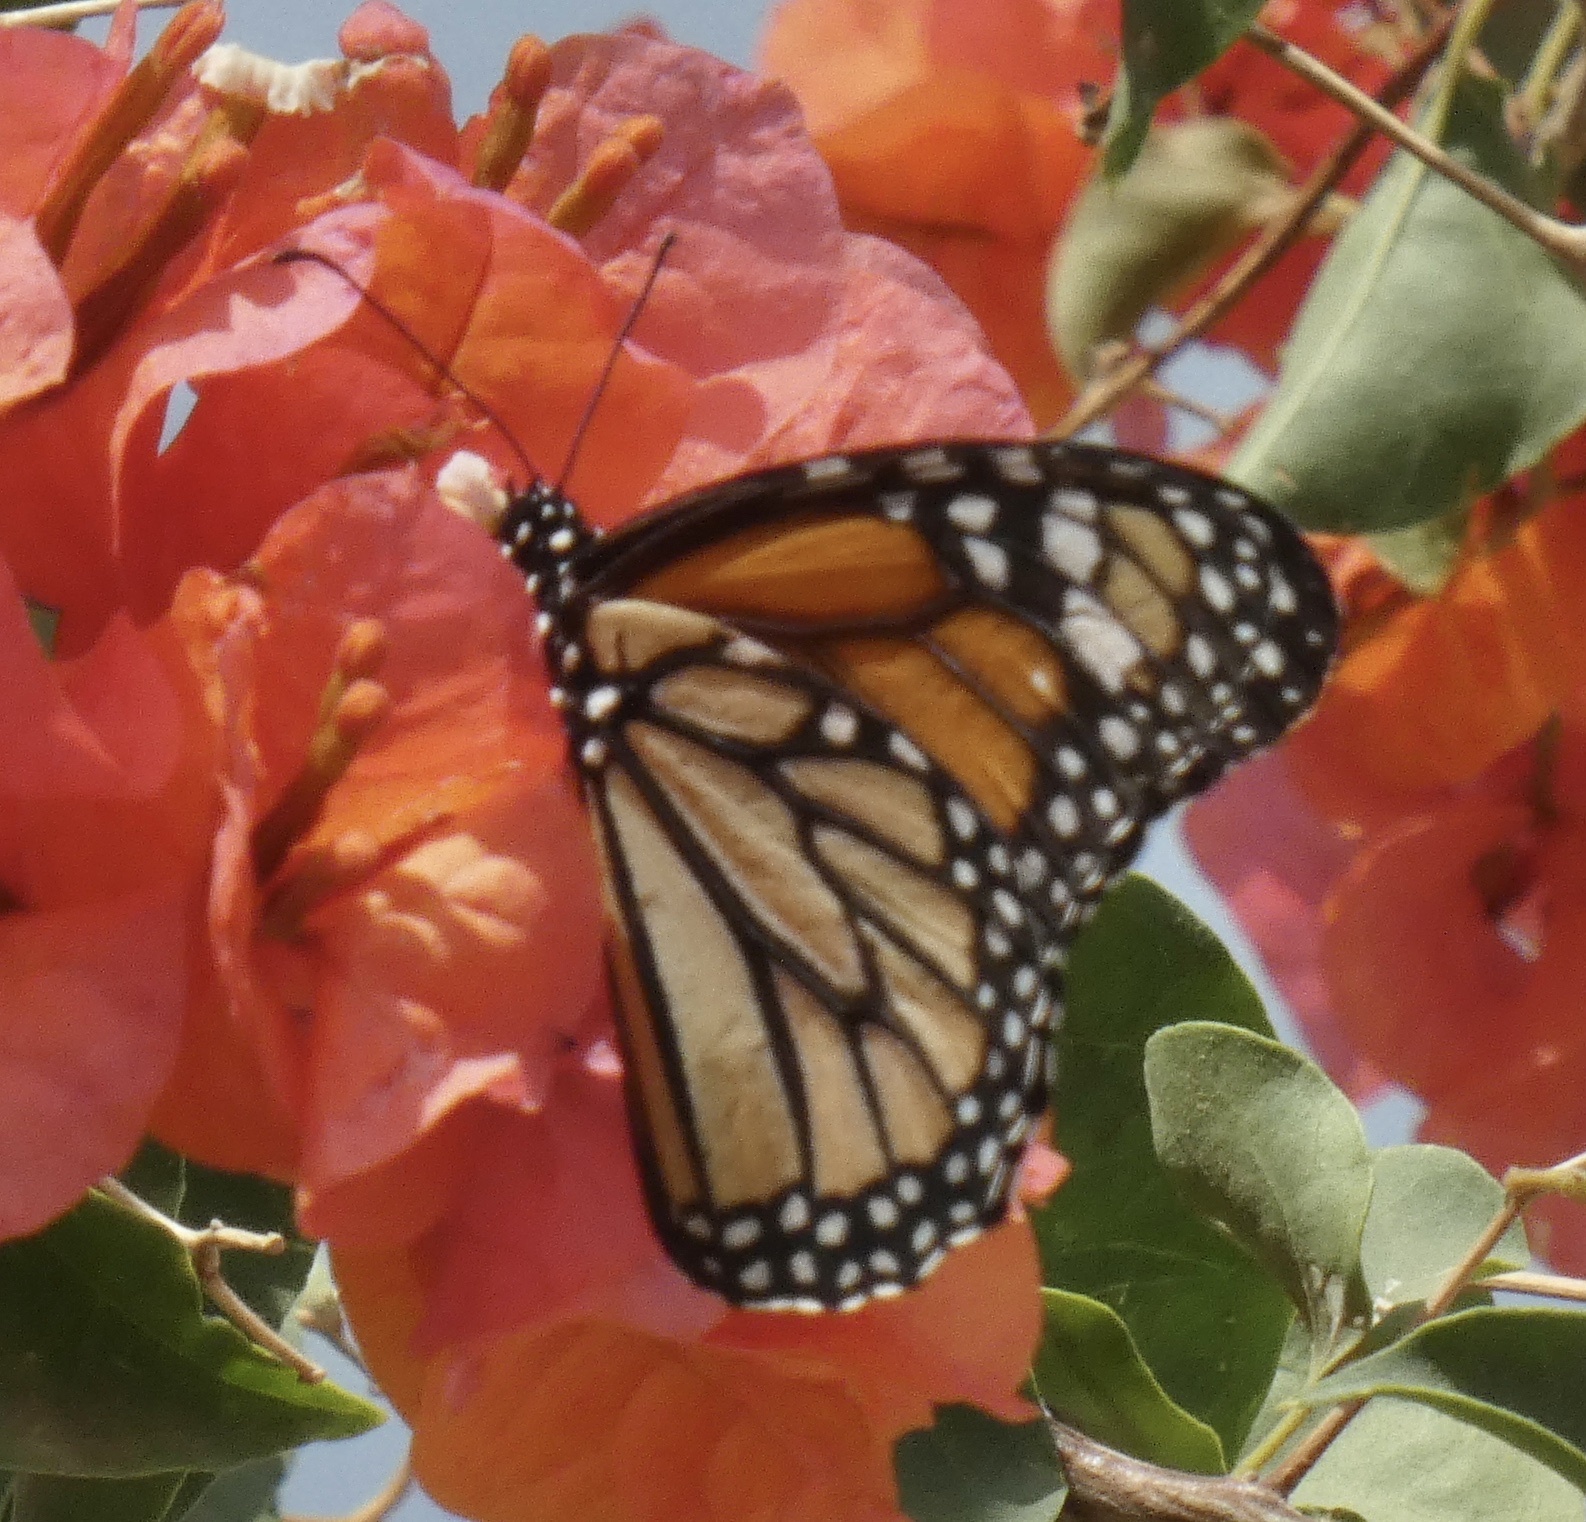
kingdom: Animalia
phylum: Arthropoda
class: Insecta
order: Lepidoptera
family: Nymphalidae
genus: Danaus
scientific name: Danaus plexippus
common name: Monarch
